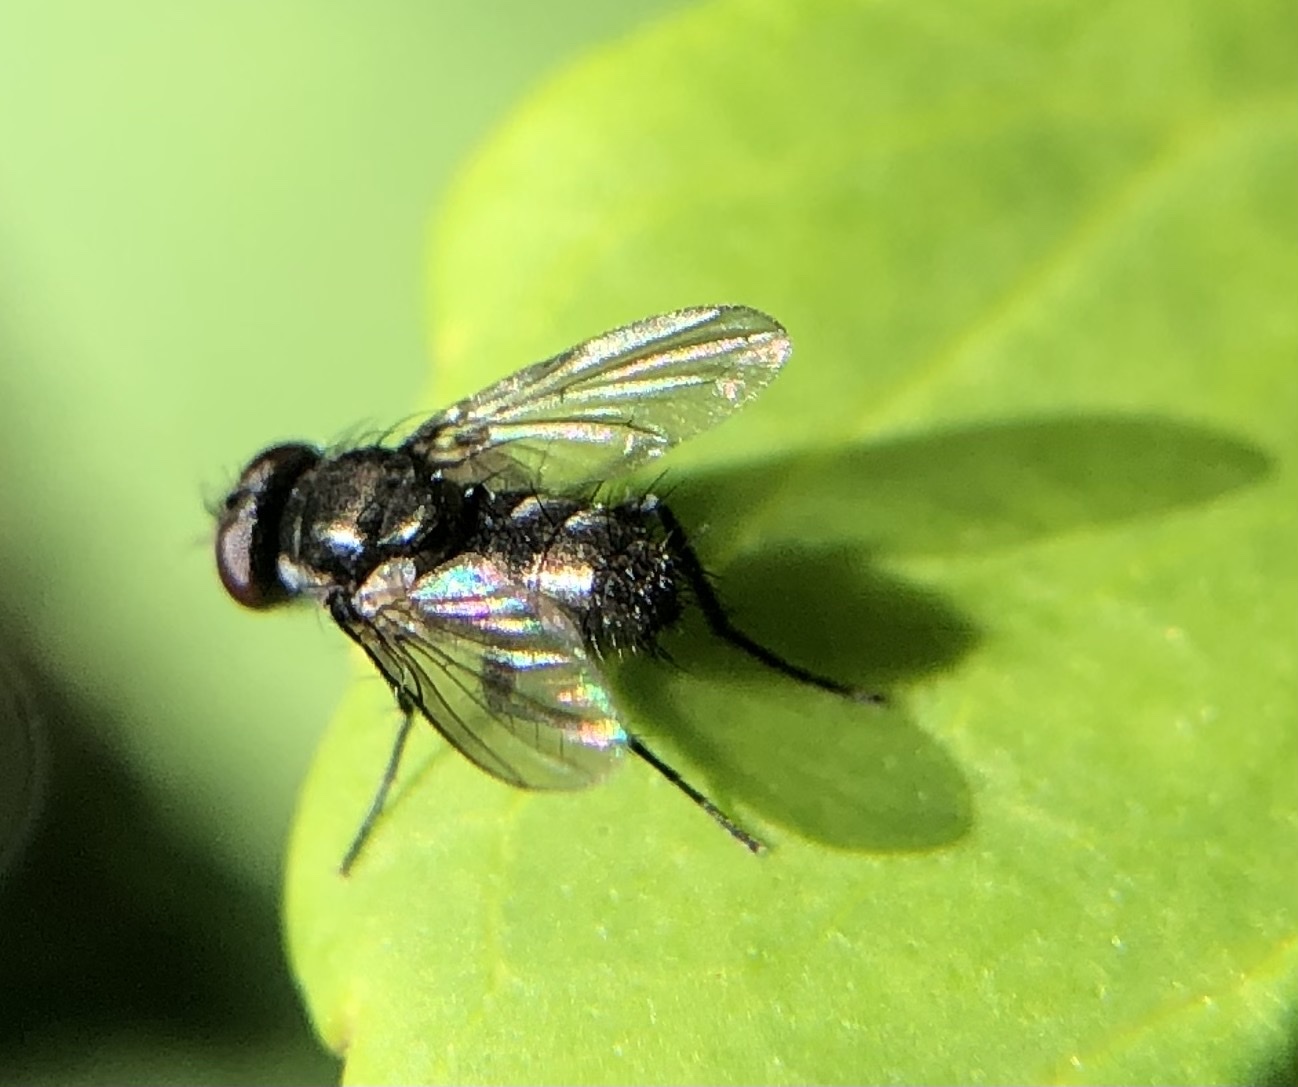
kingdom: Animalia
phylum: Arthropoda
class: Insecta
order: Diptera
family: Calliphoridae
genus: Rhinophora
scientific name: Rhinophora lepida
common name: Pouting woodlouse-fly
